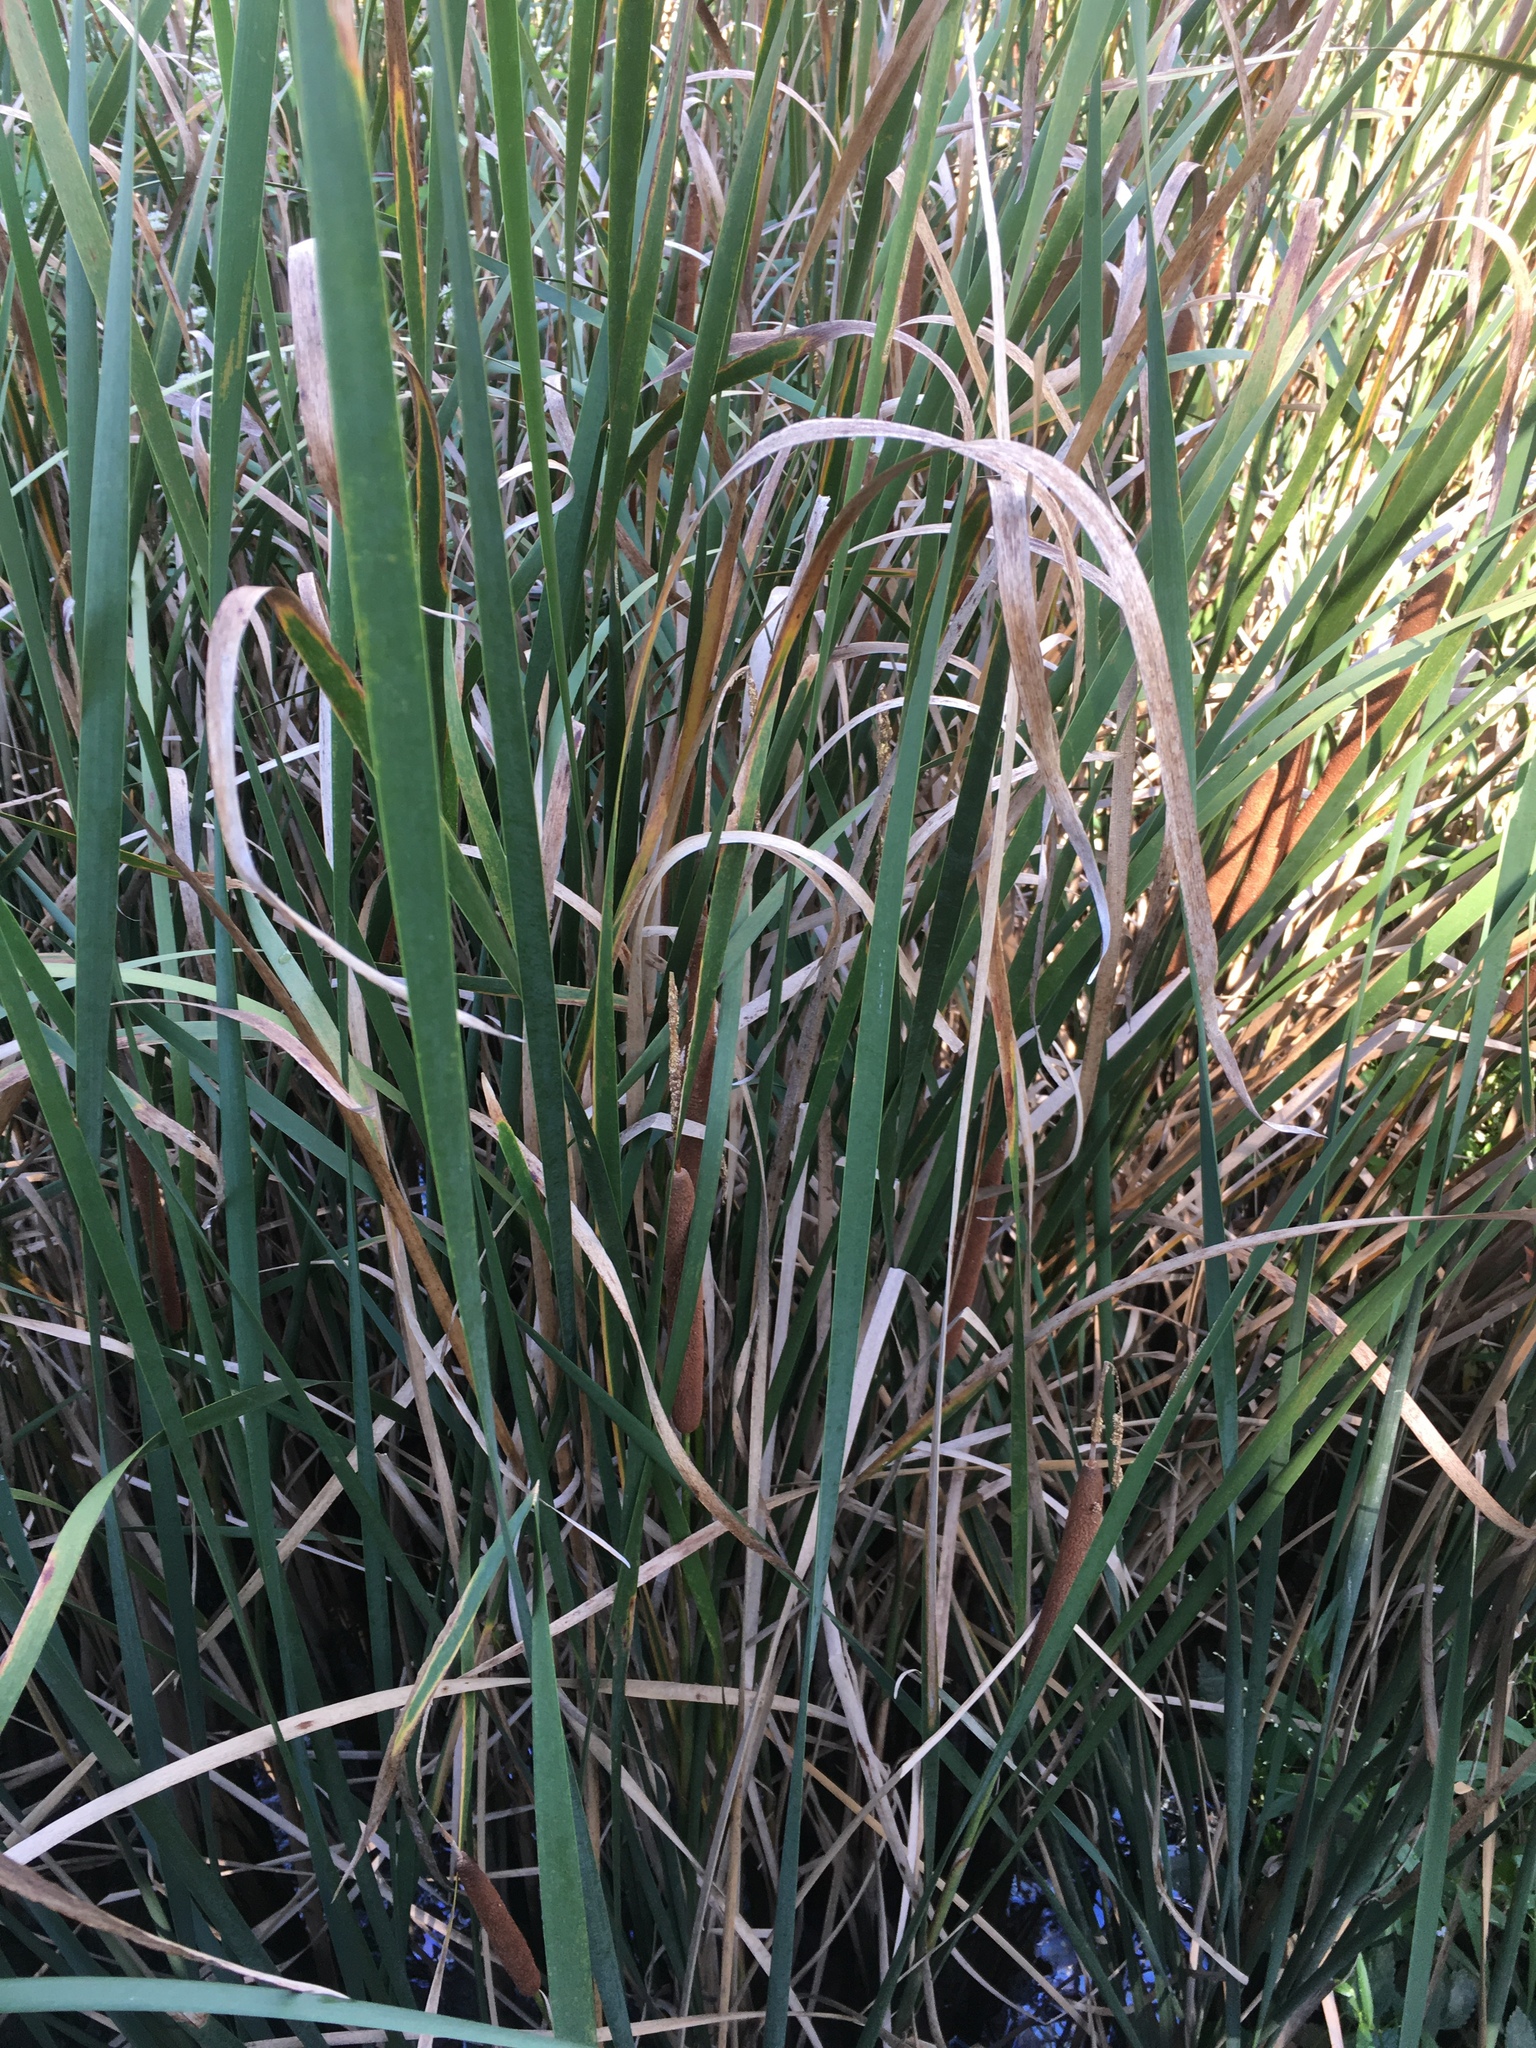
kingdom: Plantae
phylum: Tracheophyta
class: Liliopsida
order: Poales
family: Typhaceae
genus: Typha
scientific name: Typha angustifolia
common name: Lesser bulrush
